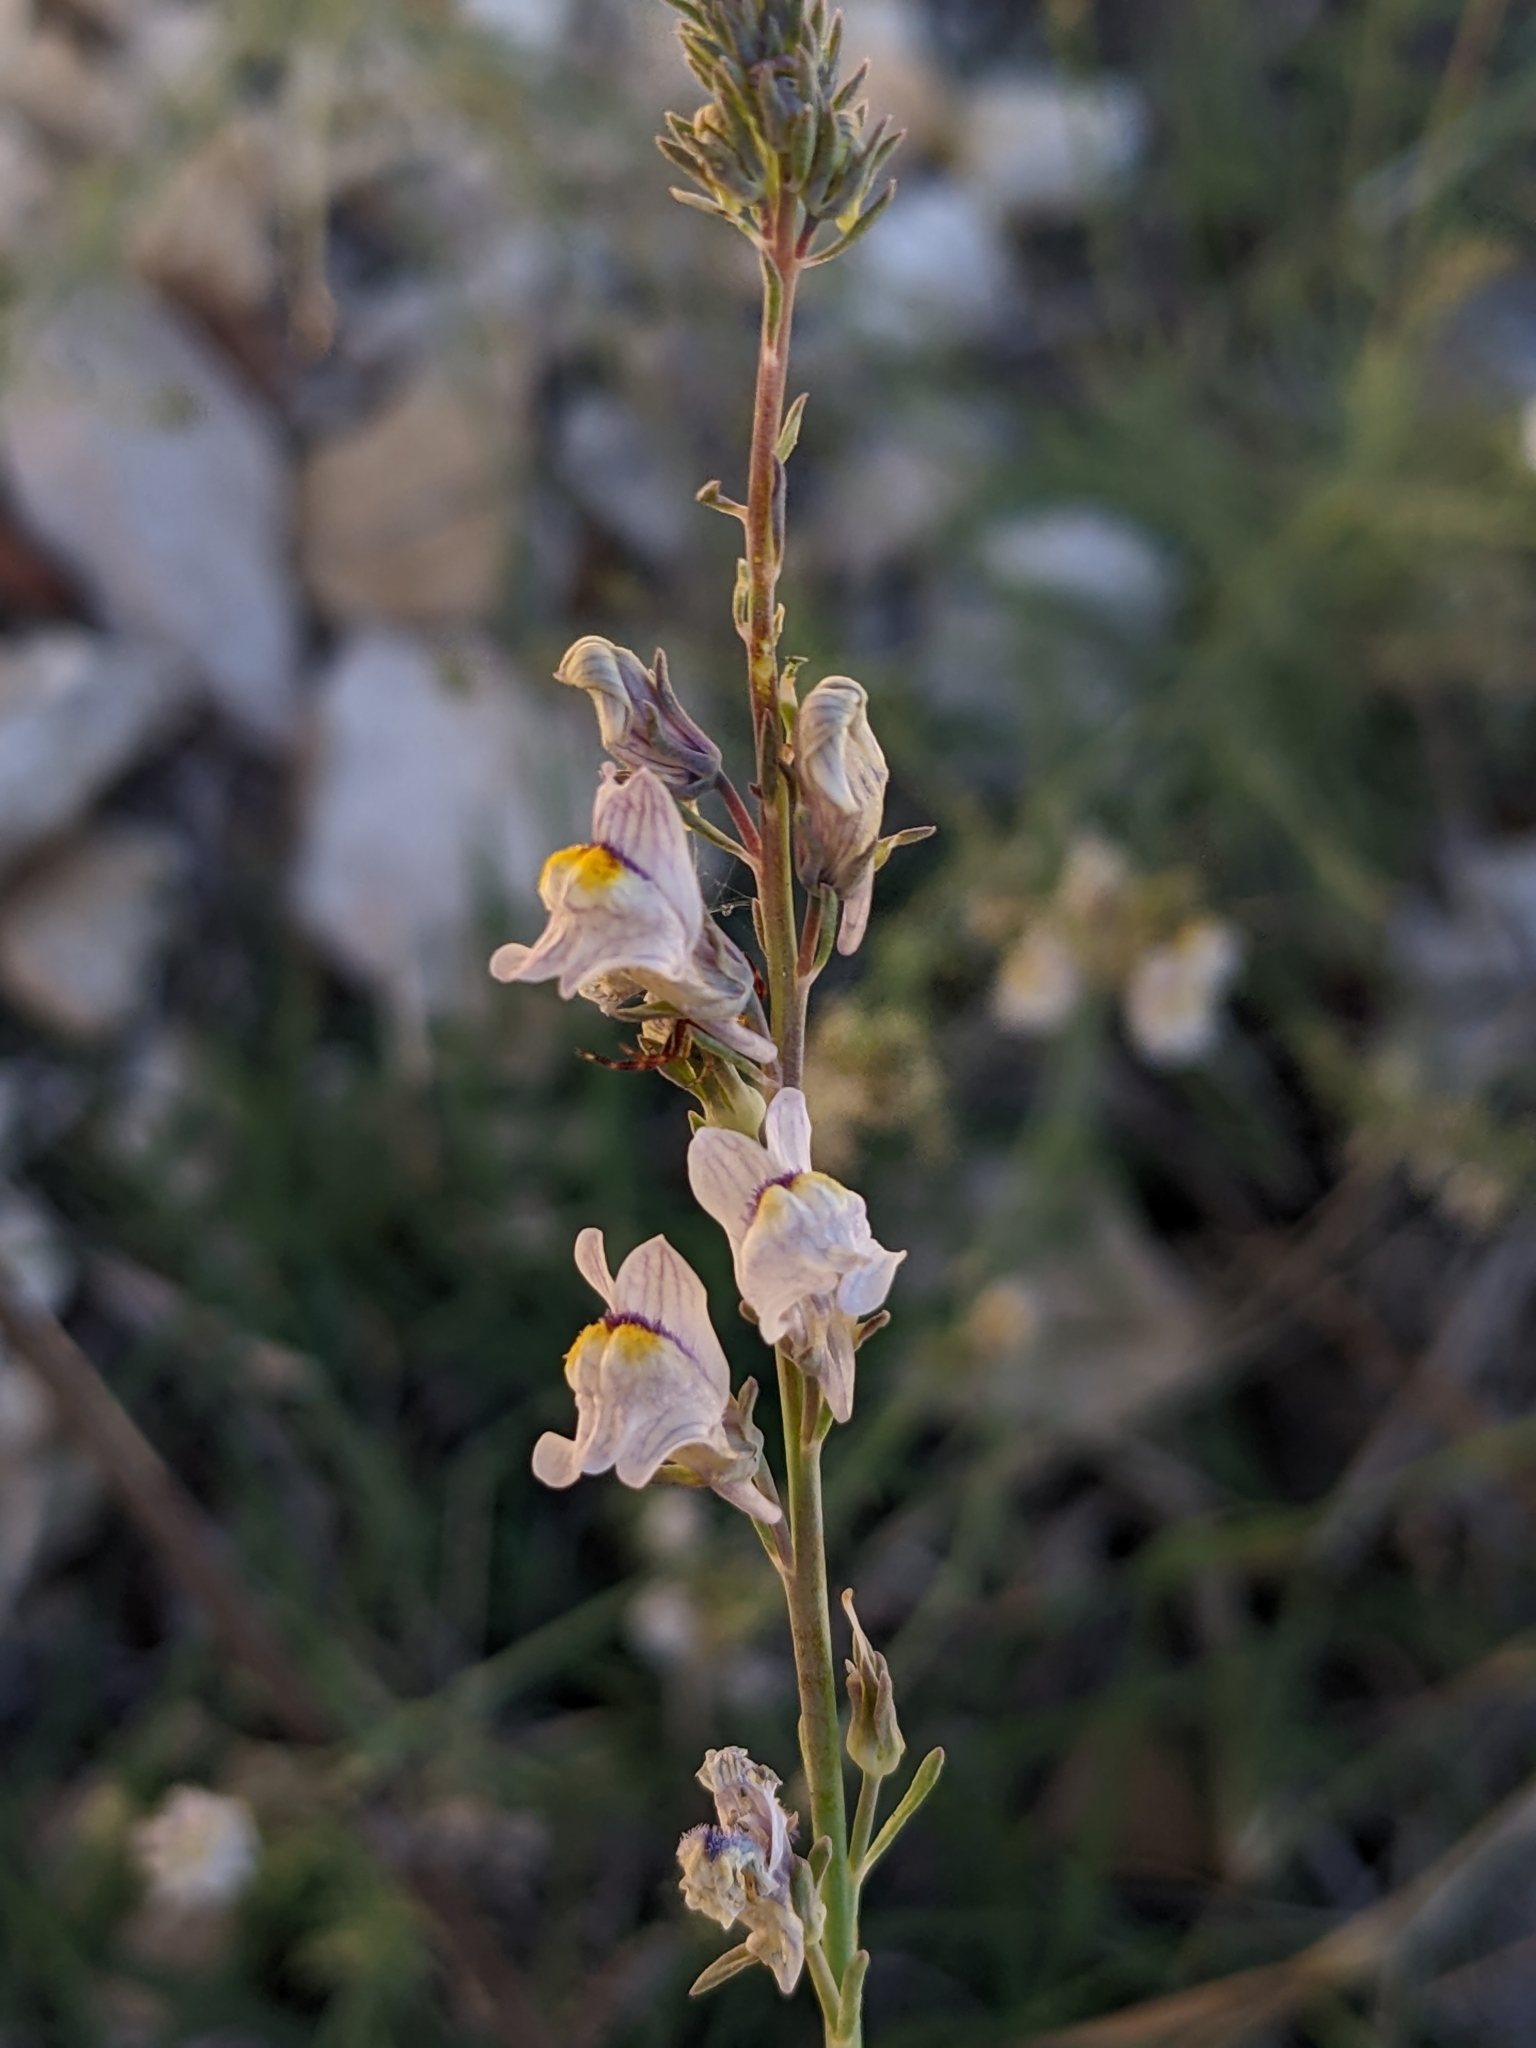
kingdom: Plantae
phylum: Tracheophyta
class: Magnoliopsida
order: Lamiales
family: Plantaginaceae
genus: Linaria
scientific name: Linaria repens
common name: Pale toadflax
